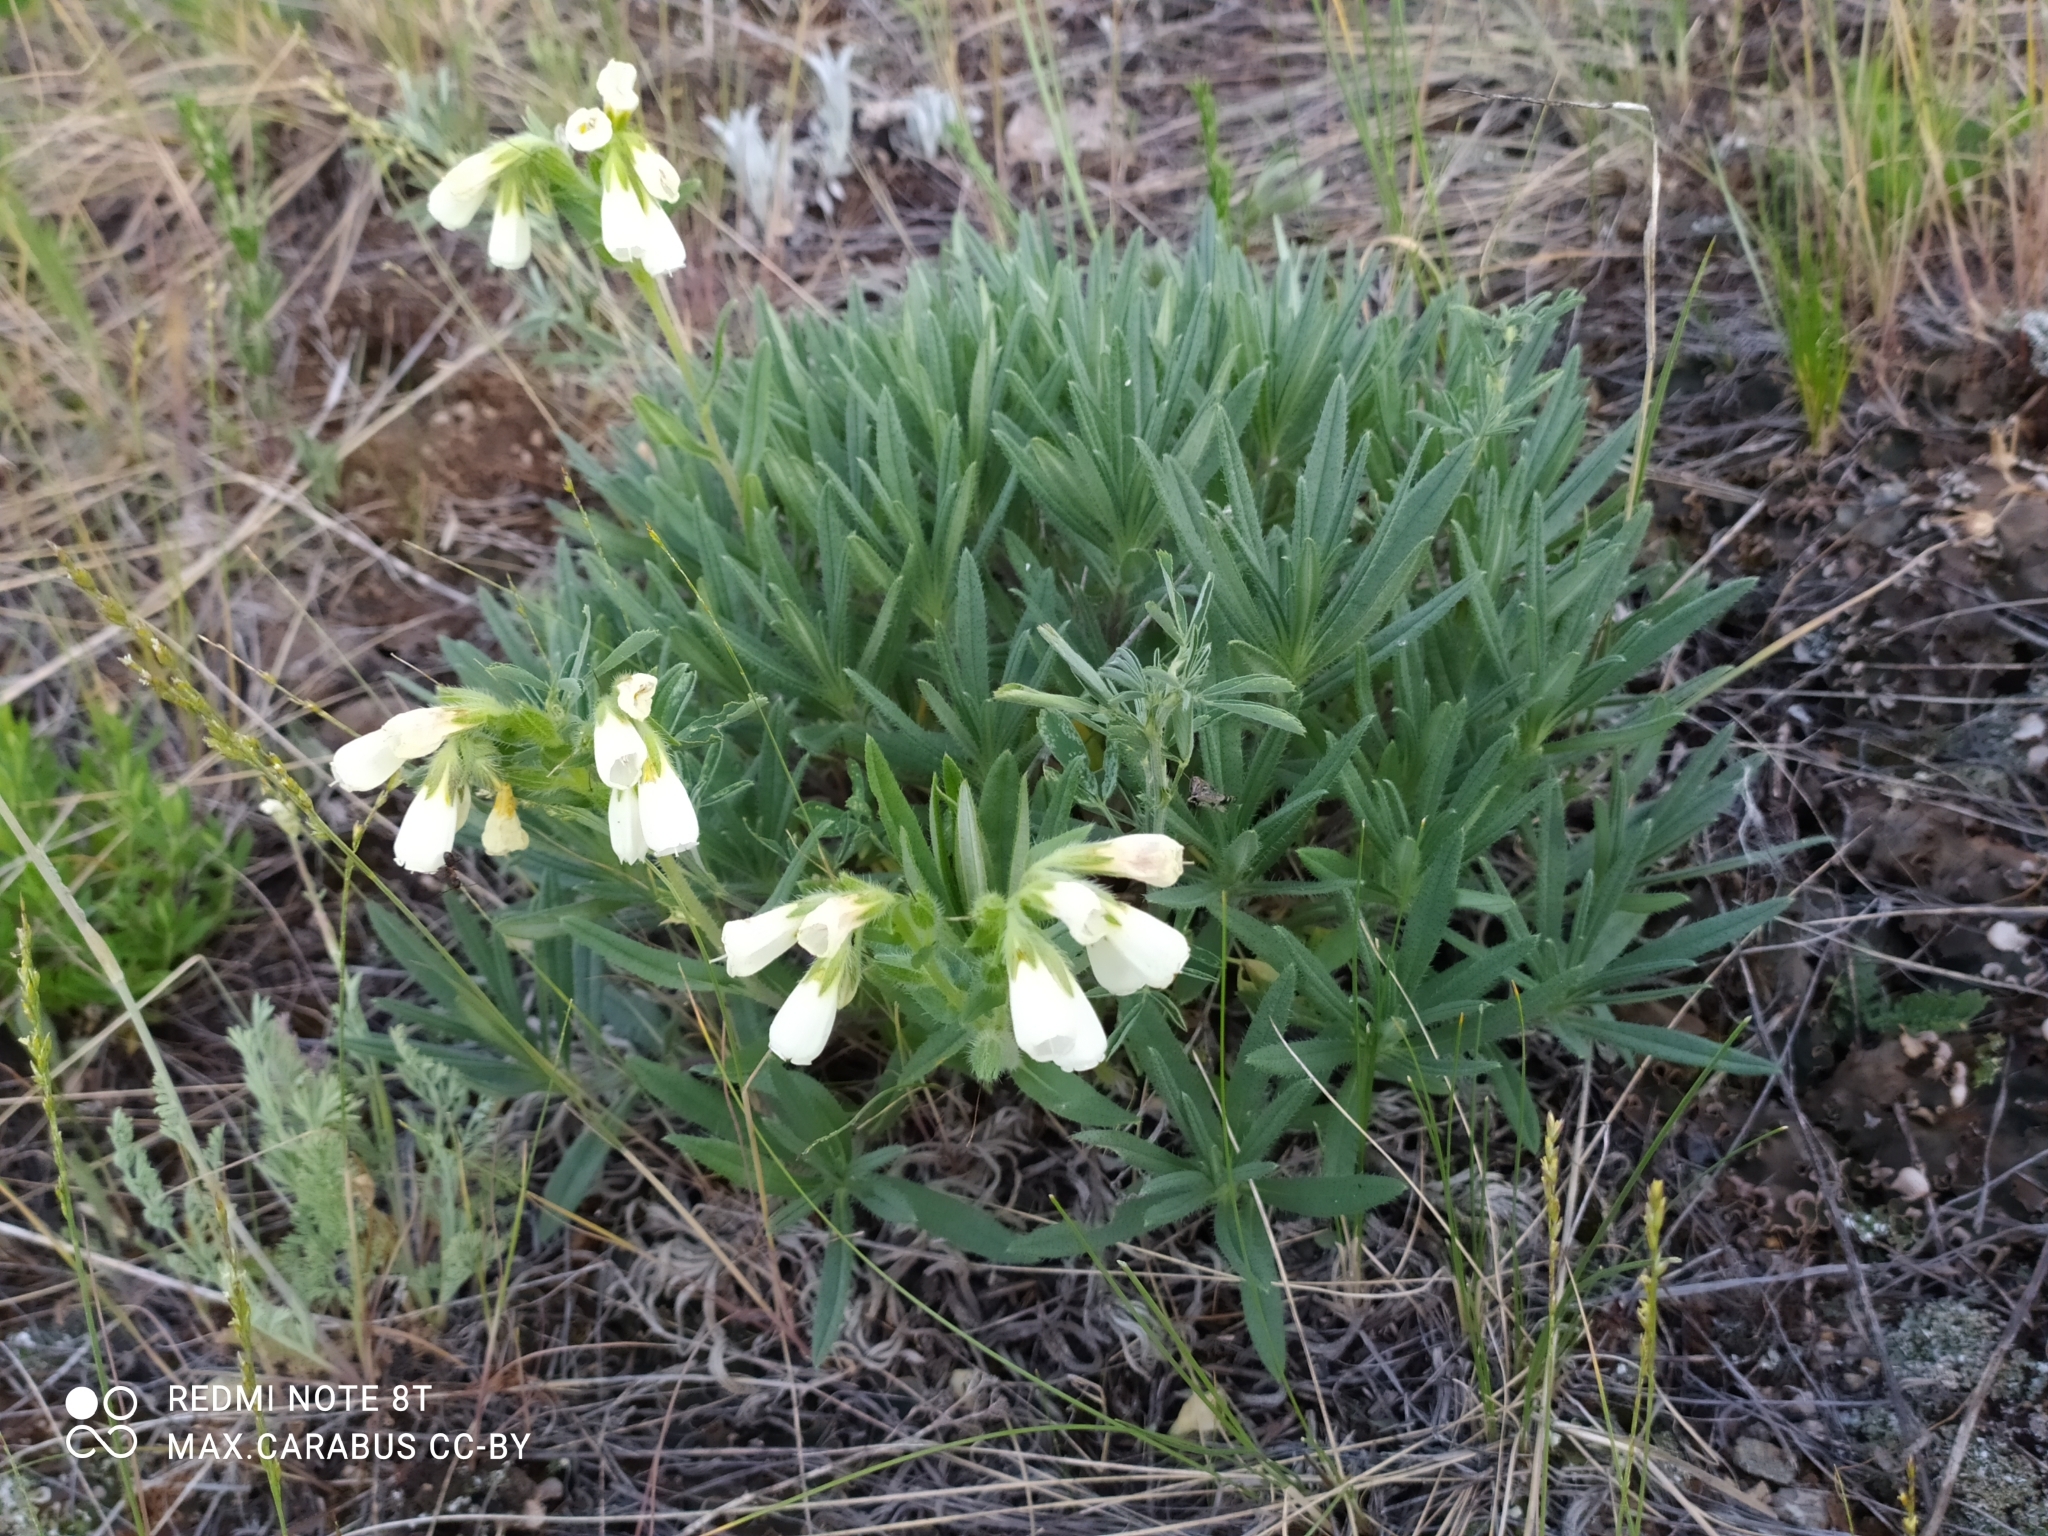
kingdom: Plantae
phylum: Tracheophyta
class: Magnoliopsida
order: Boraginales
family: Boraginaceae
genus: Onosma
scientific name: Onosma simplicissima
